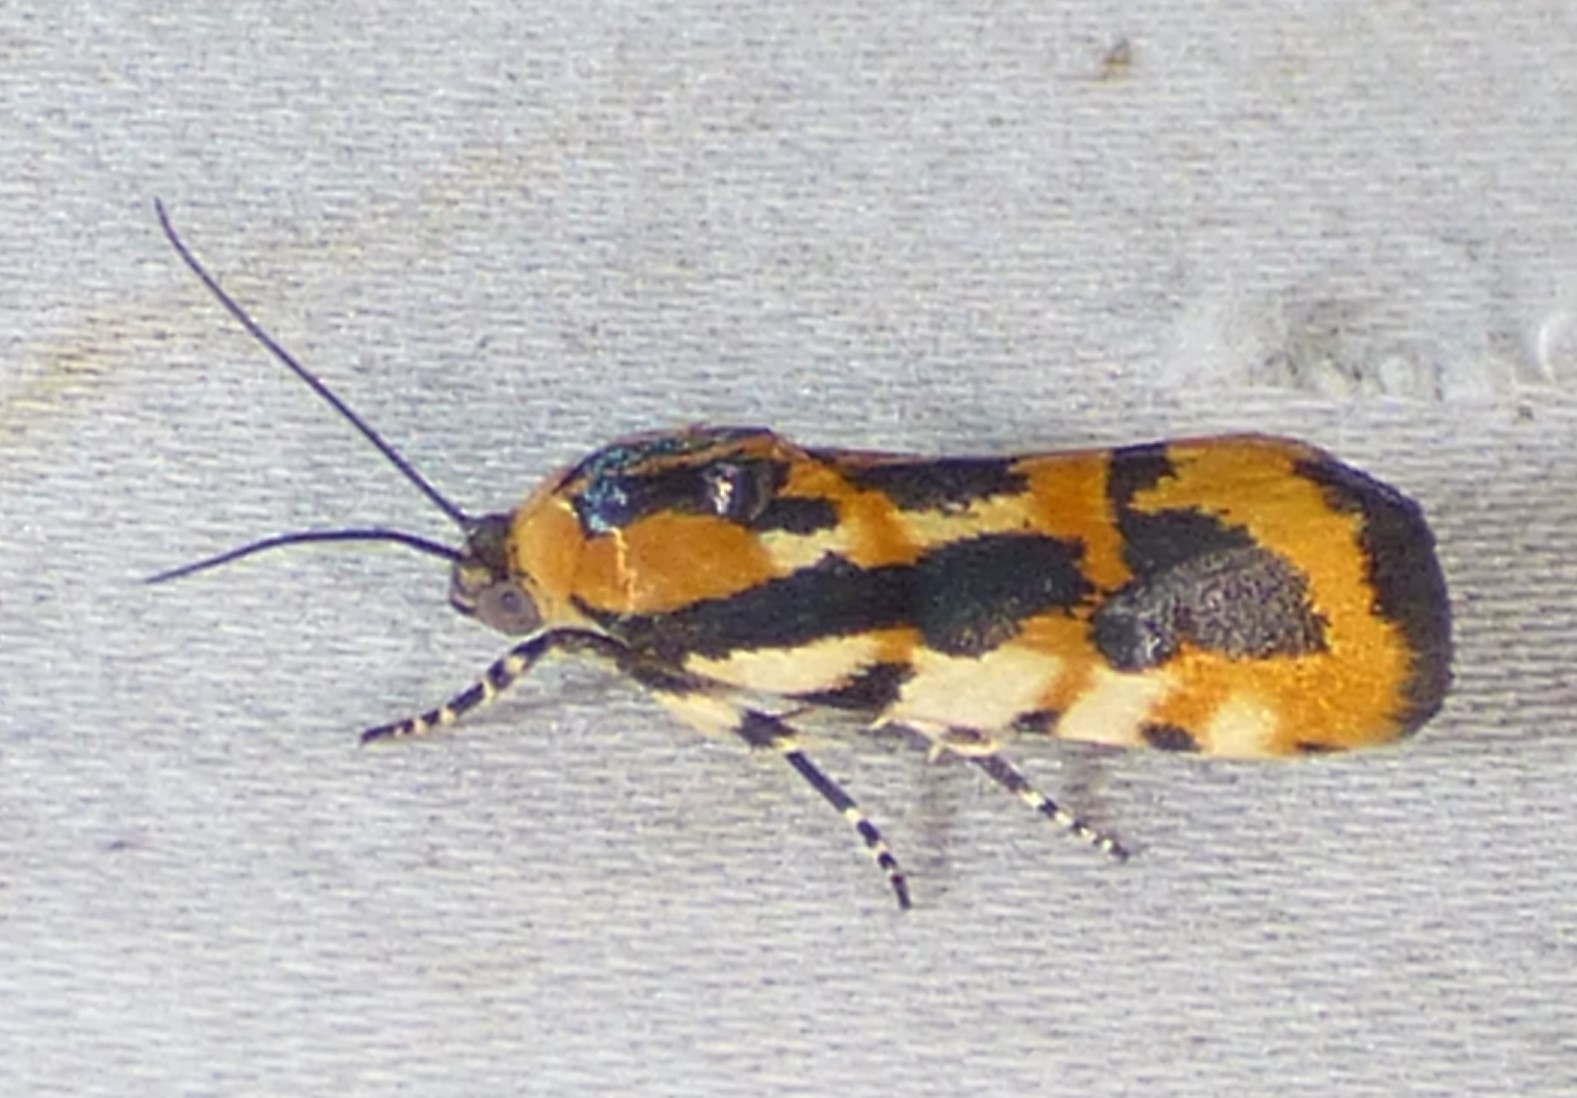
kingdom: Animalia
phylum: Arthropoda
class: Insecta
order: Lepidoptera
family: Noctuidae
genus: Acontia
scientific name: Acontia leo
